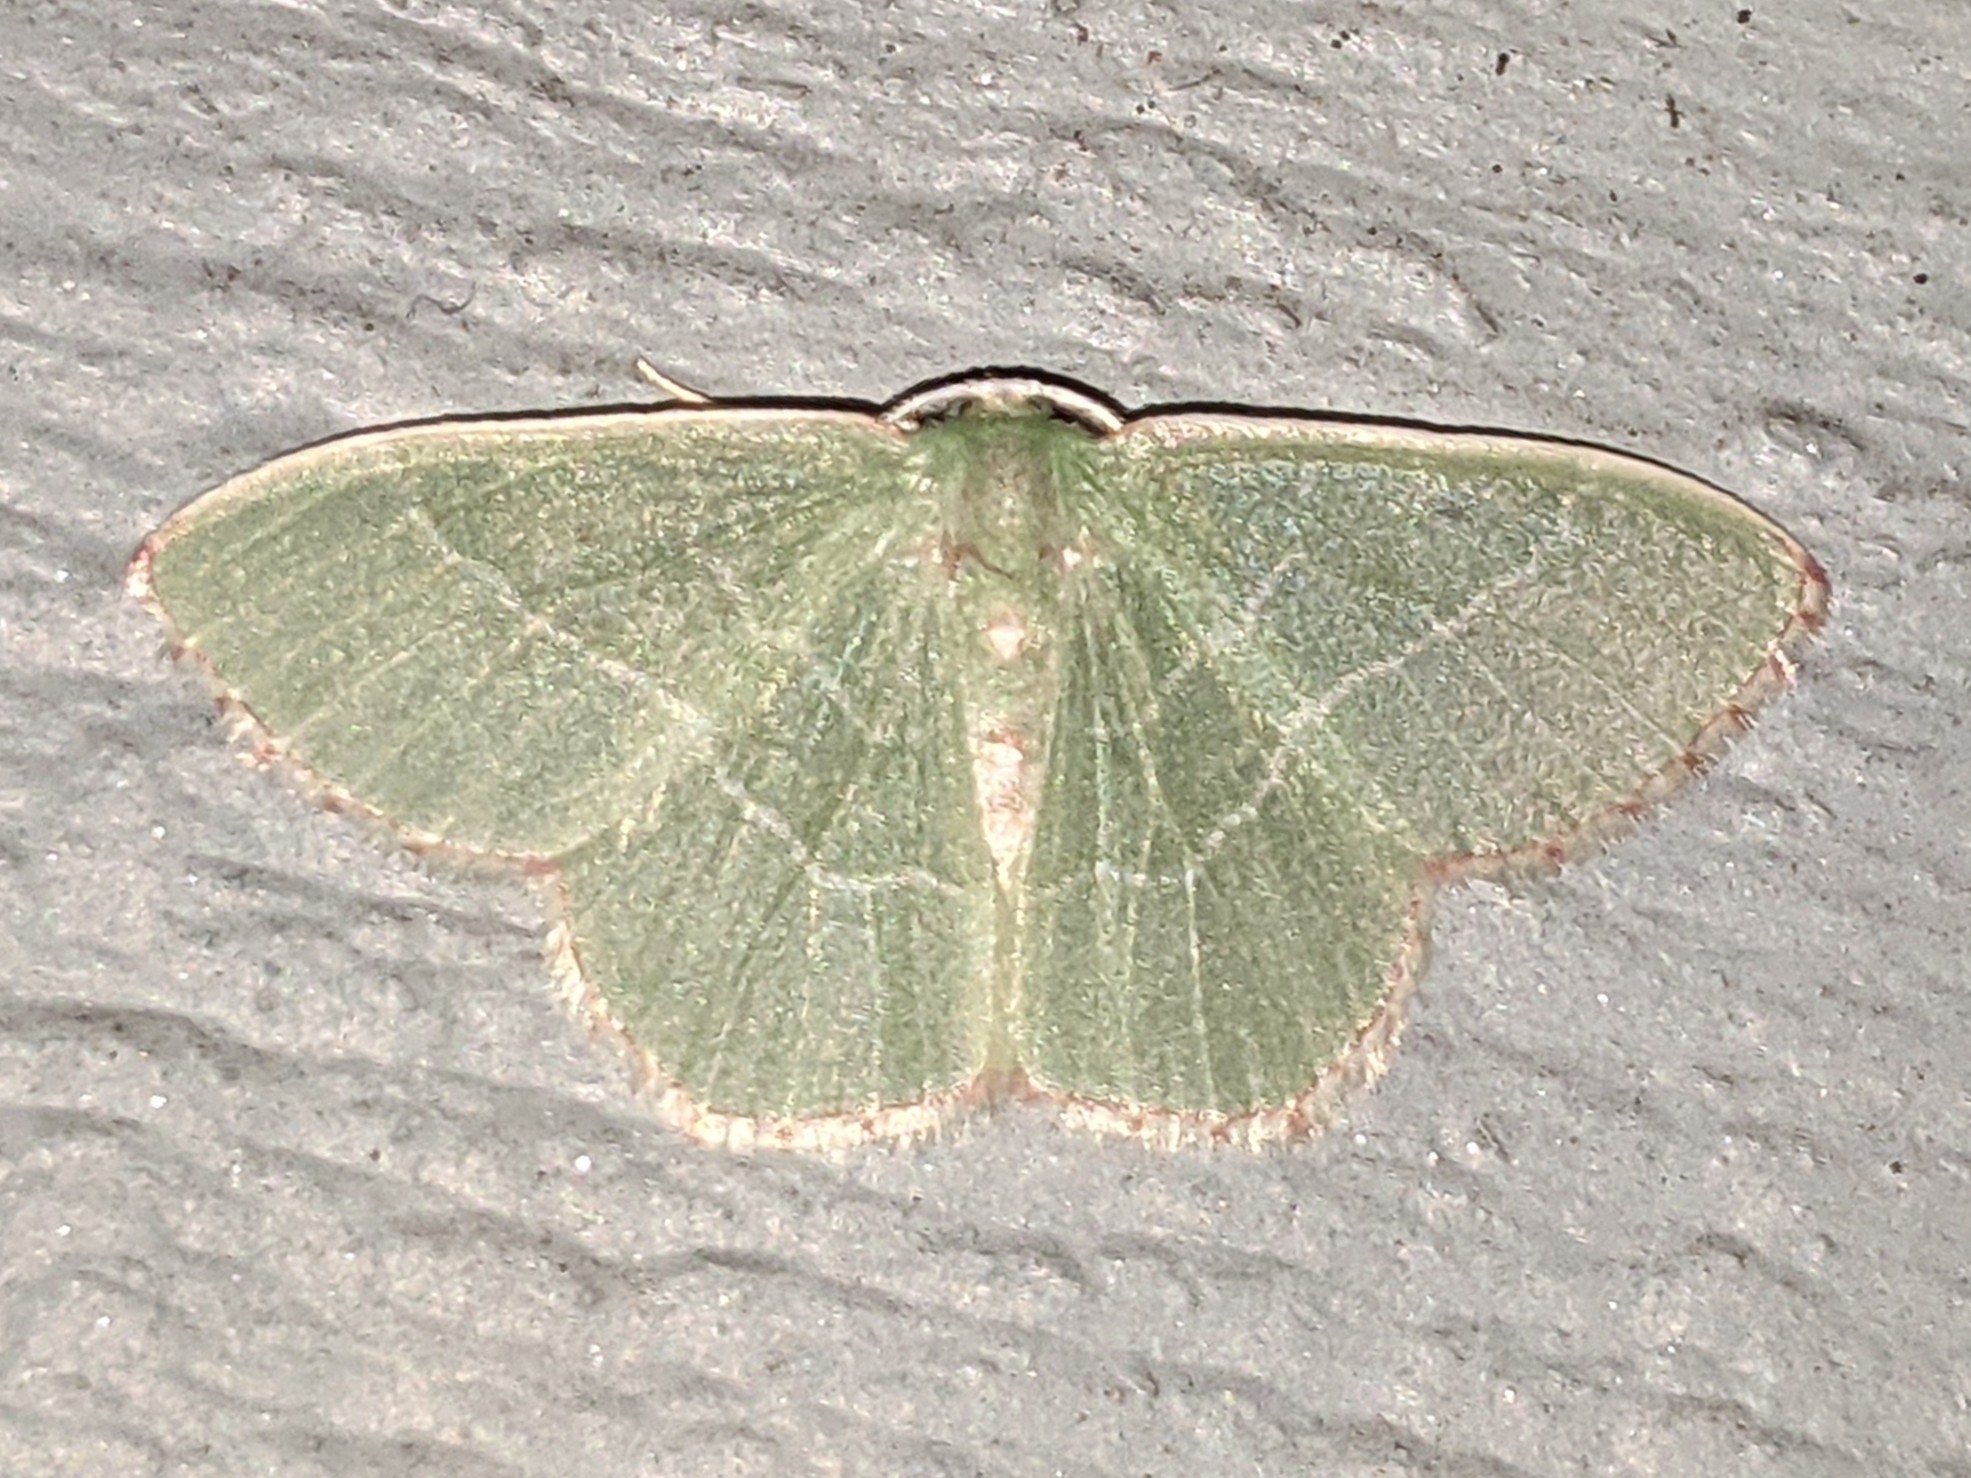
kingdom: Animalia
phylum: Arthropoda
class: Insecta
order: Lepidoptera
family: Geometridae
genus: Nemoria
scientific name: Nemoria bistriaria
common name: Red-fringed emerald
